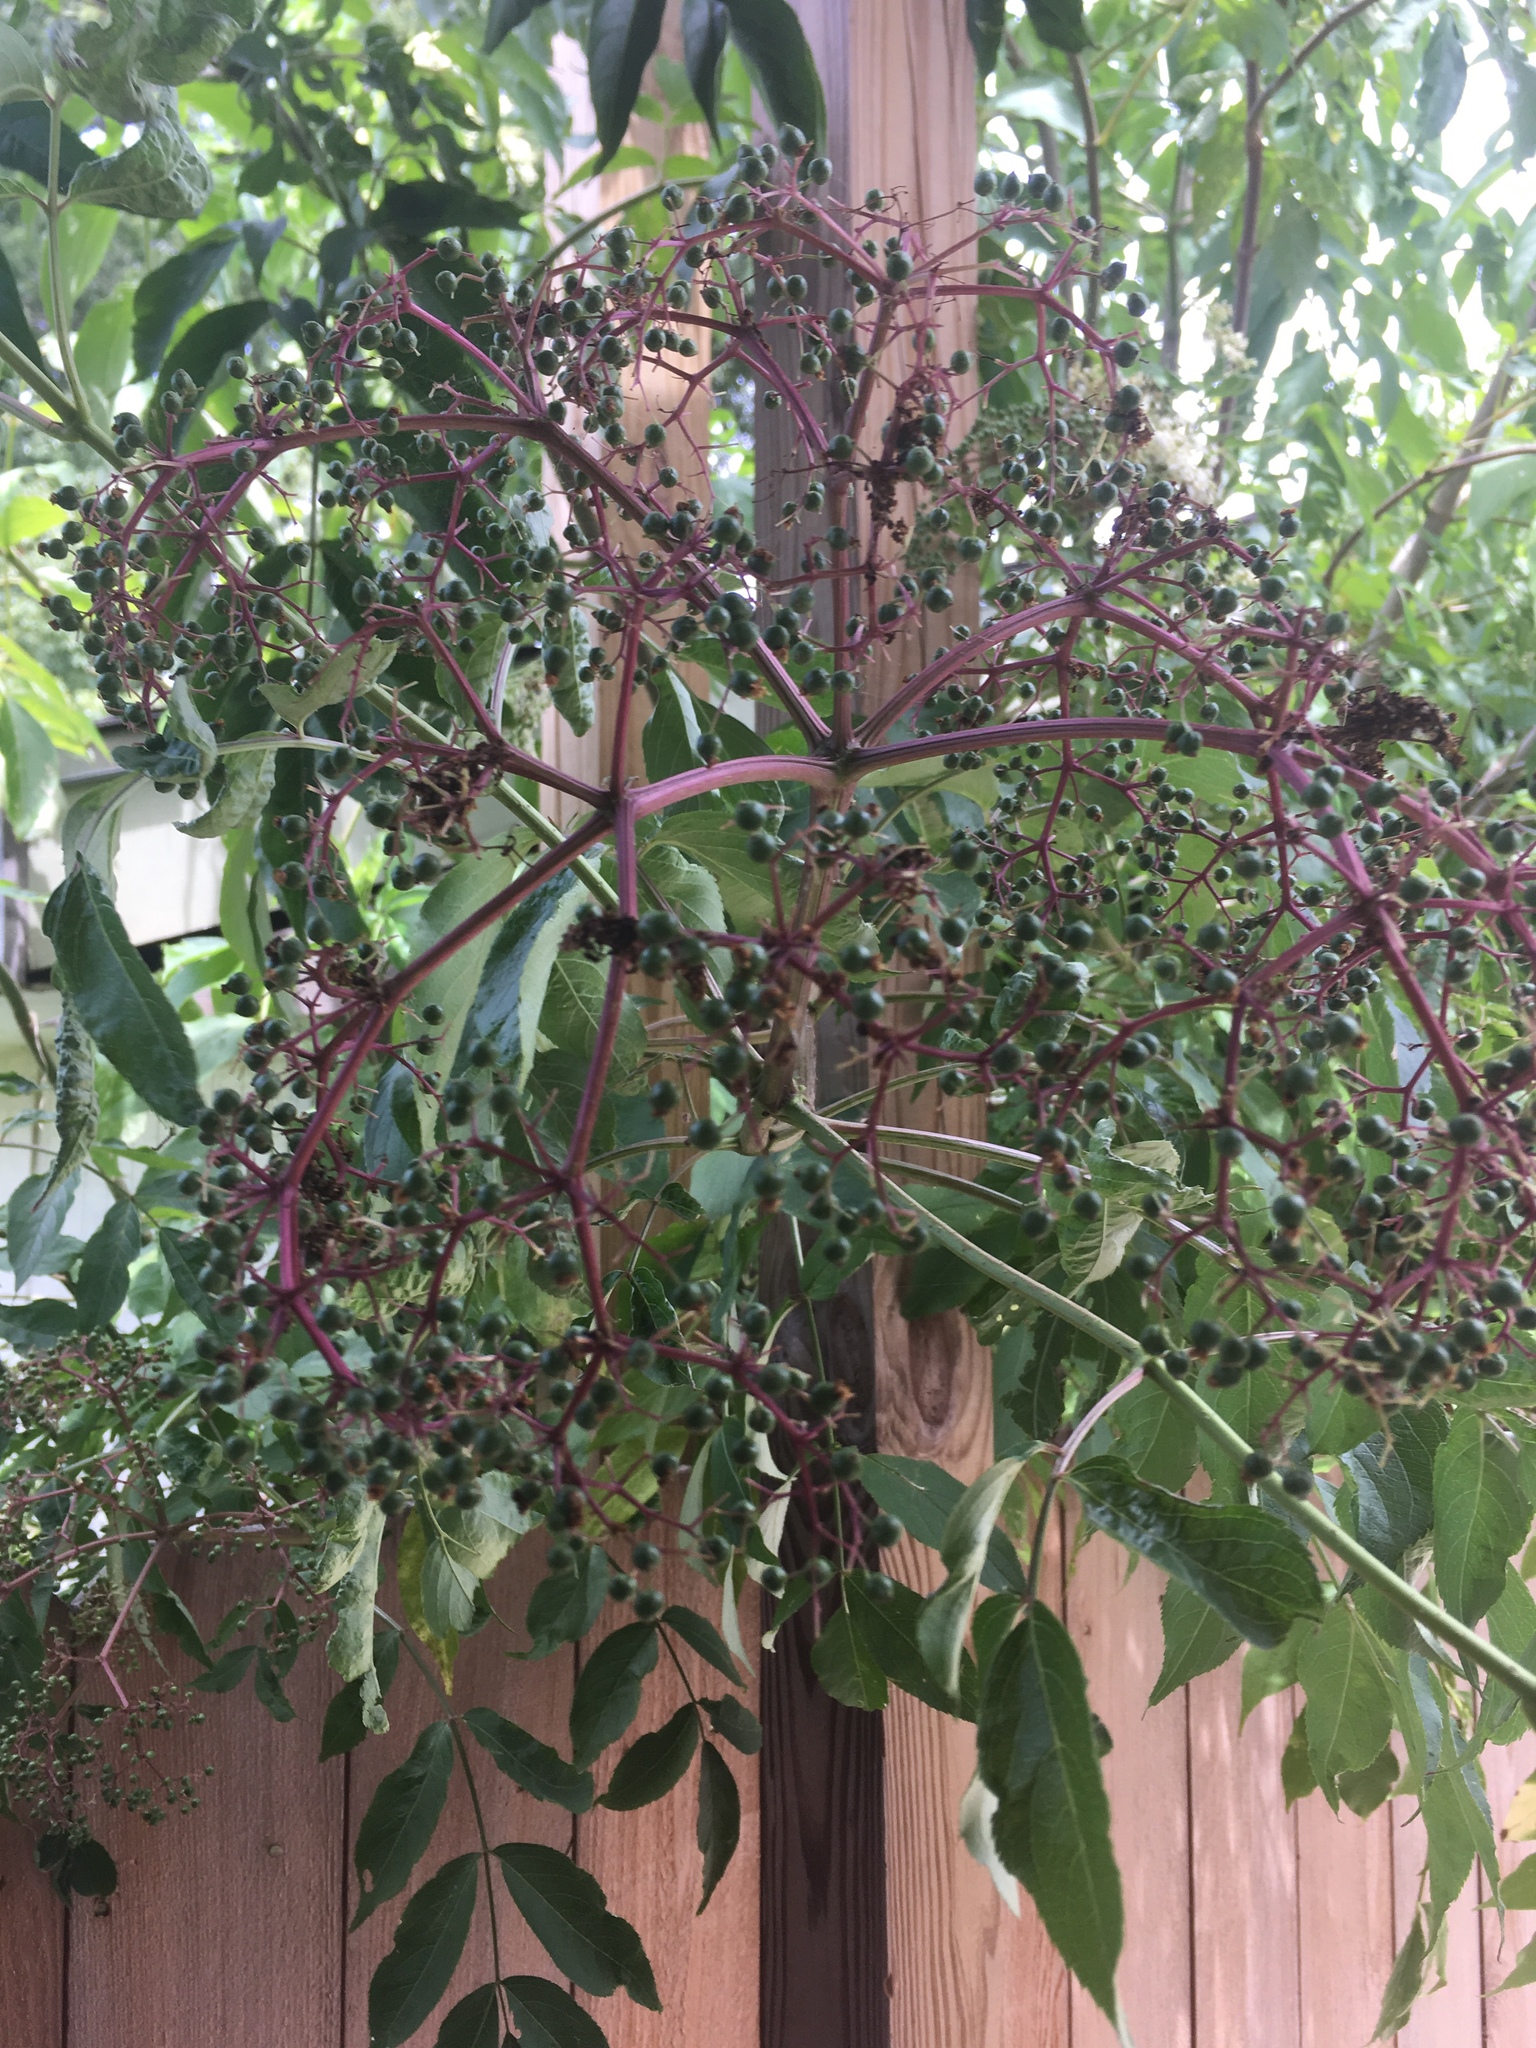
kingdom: Plantae
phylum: Tracheophyta
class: Magnoliopsida
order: Dipsacales
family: Viburnaceae
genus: Sambucus
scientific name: Sambucus canadensis
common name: American elder
